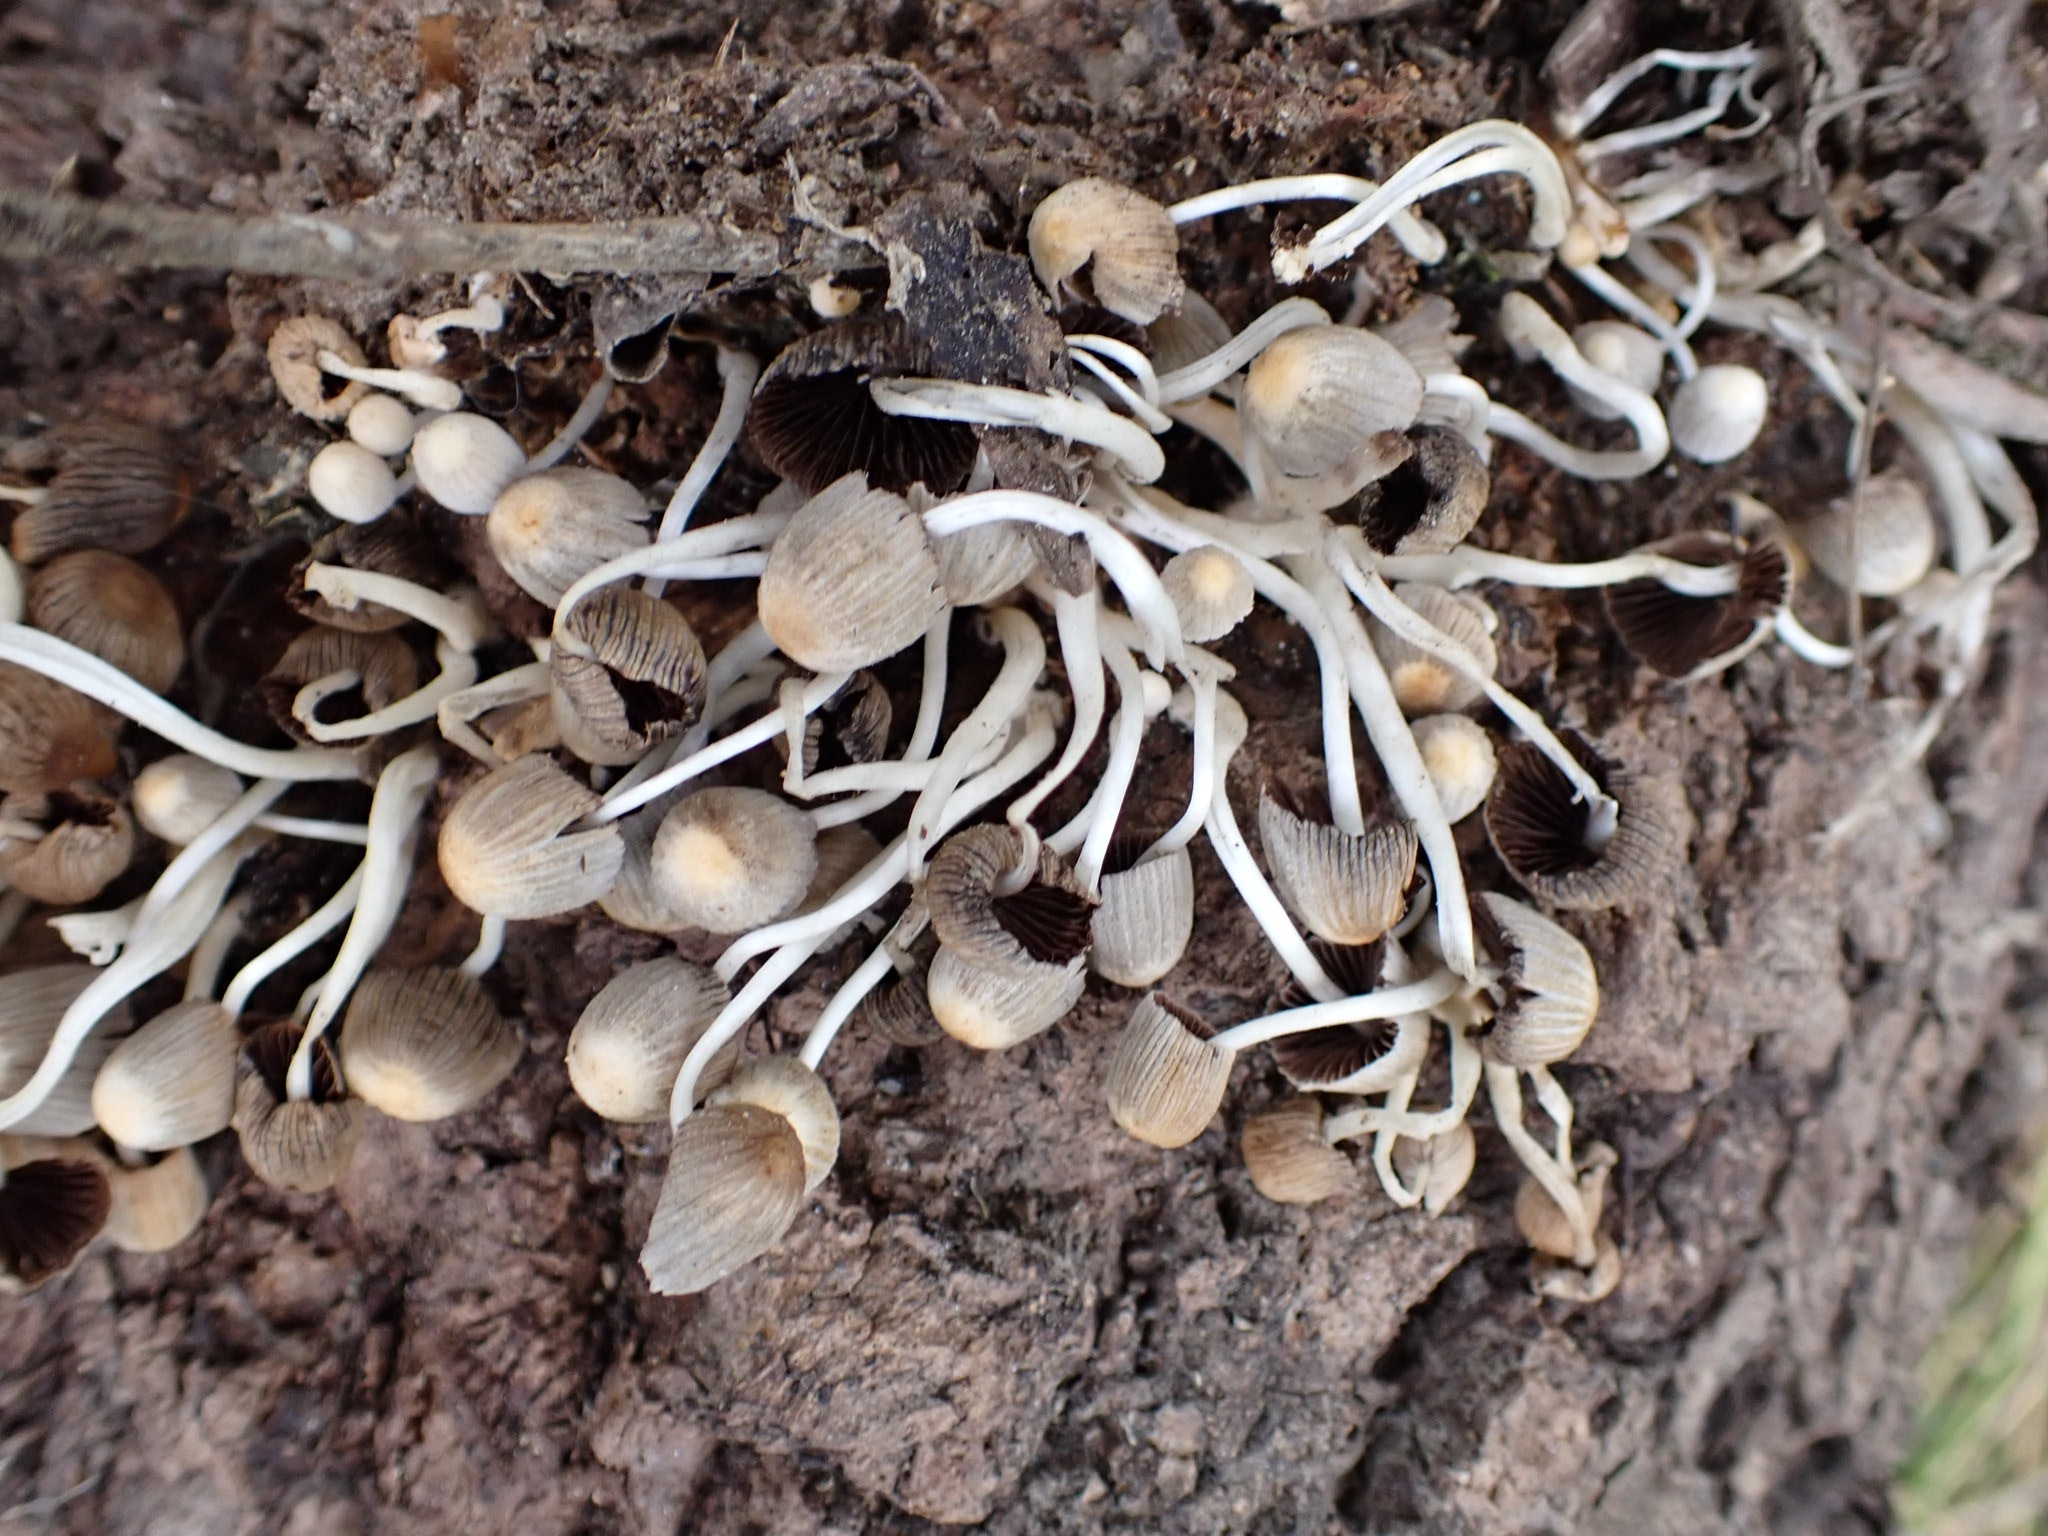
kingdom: Fungi
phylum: Basidiomycota
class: Agaricomycetes
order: Agaricales
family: Psathyrellaceae
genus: Coprinellus
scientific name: Coprinellus disseminatus
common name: Fairies' bonnets
